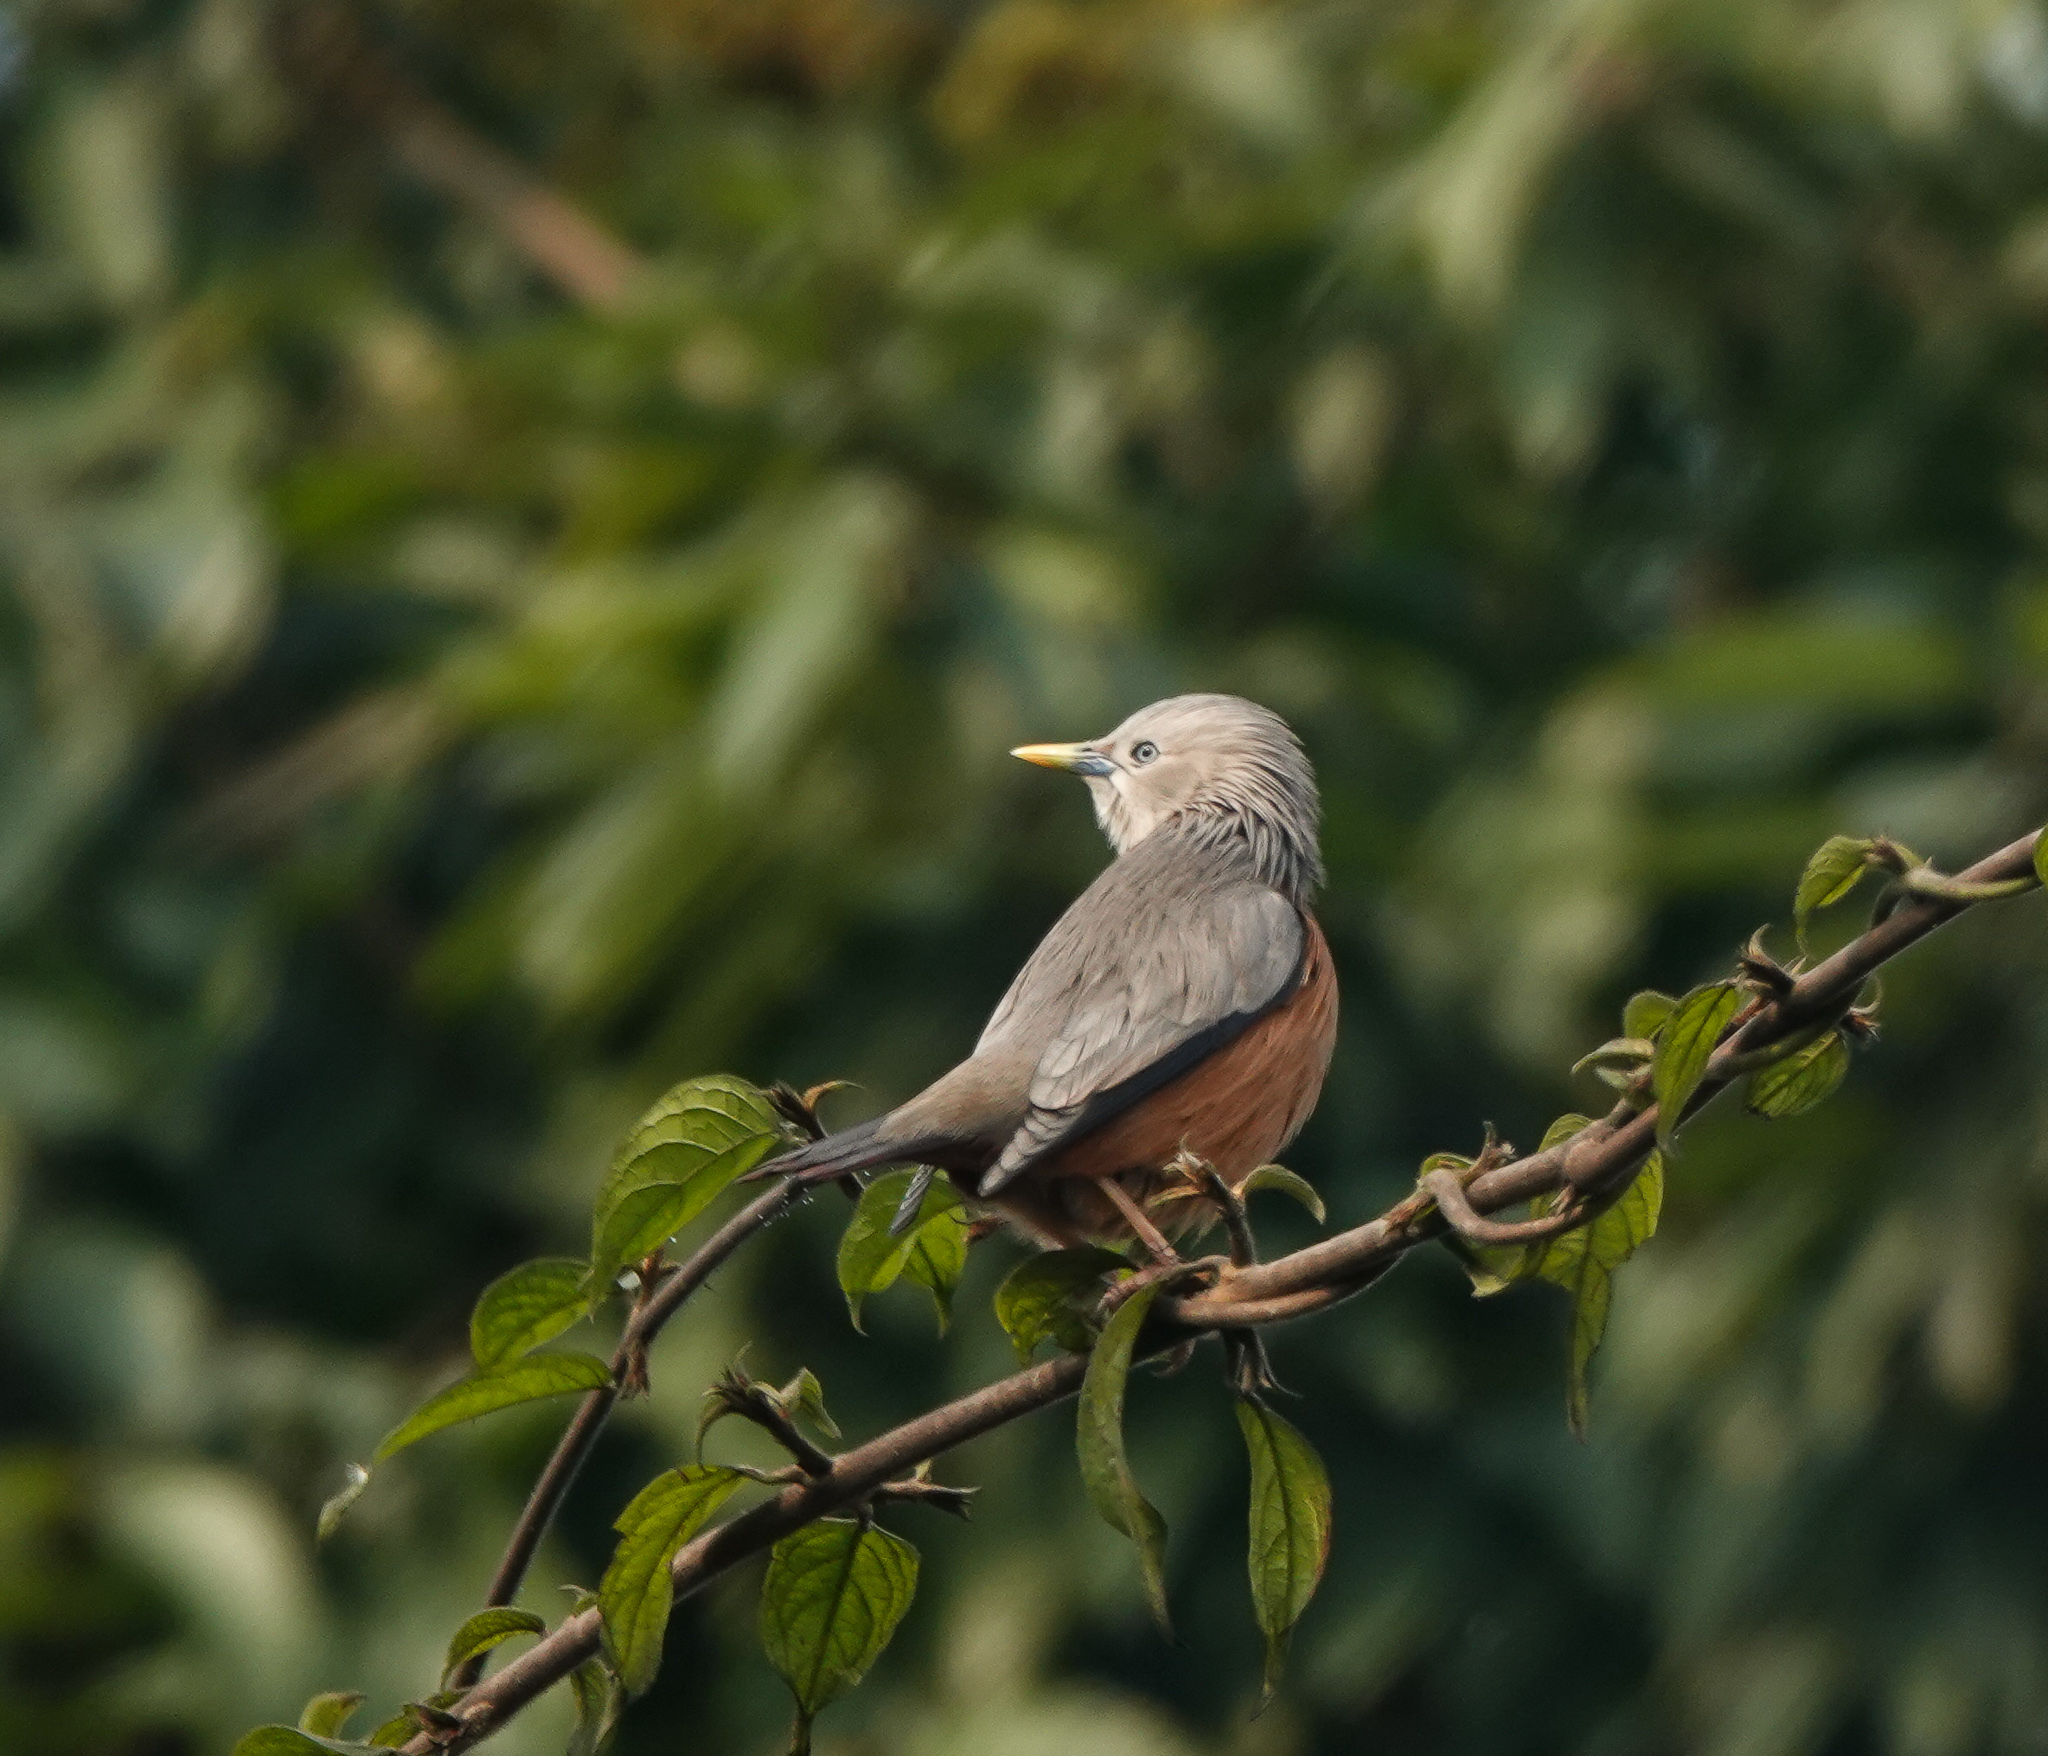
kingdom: Animalia
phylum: Chordata
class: Aves
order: Passeriformes
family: Sturnidae
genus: Sturnia
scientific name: Sturnia malabarica
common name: Chestnut-tailed starling
